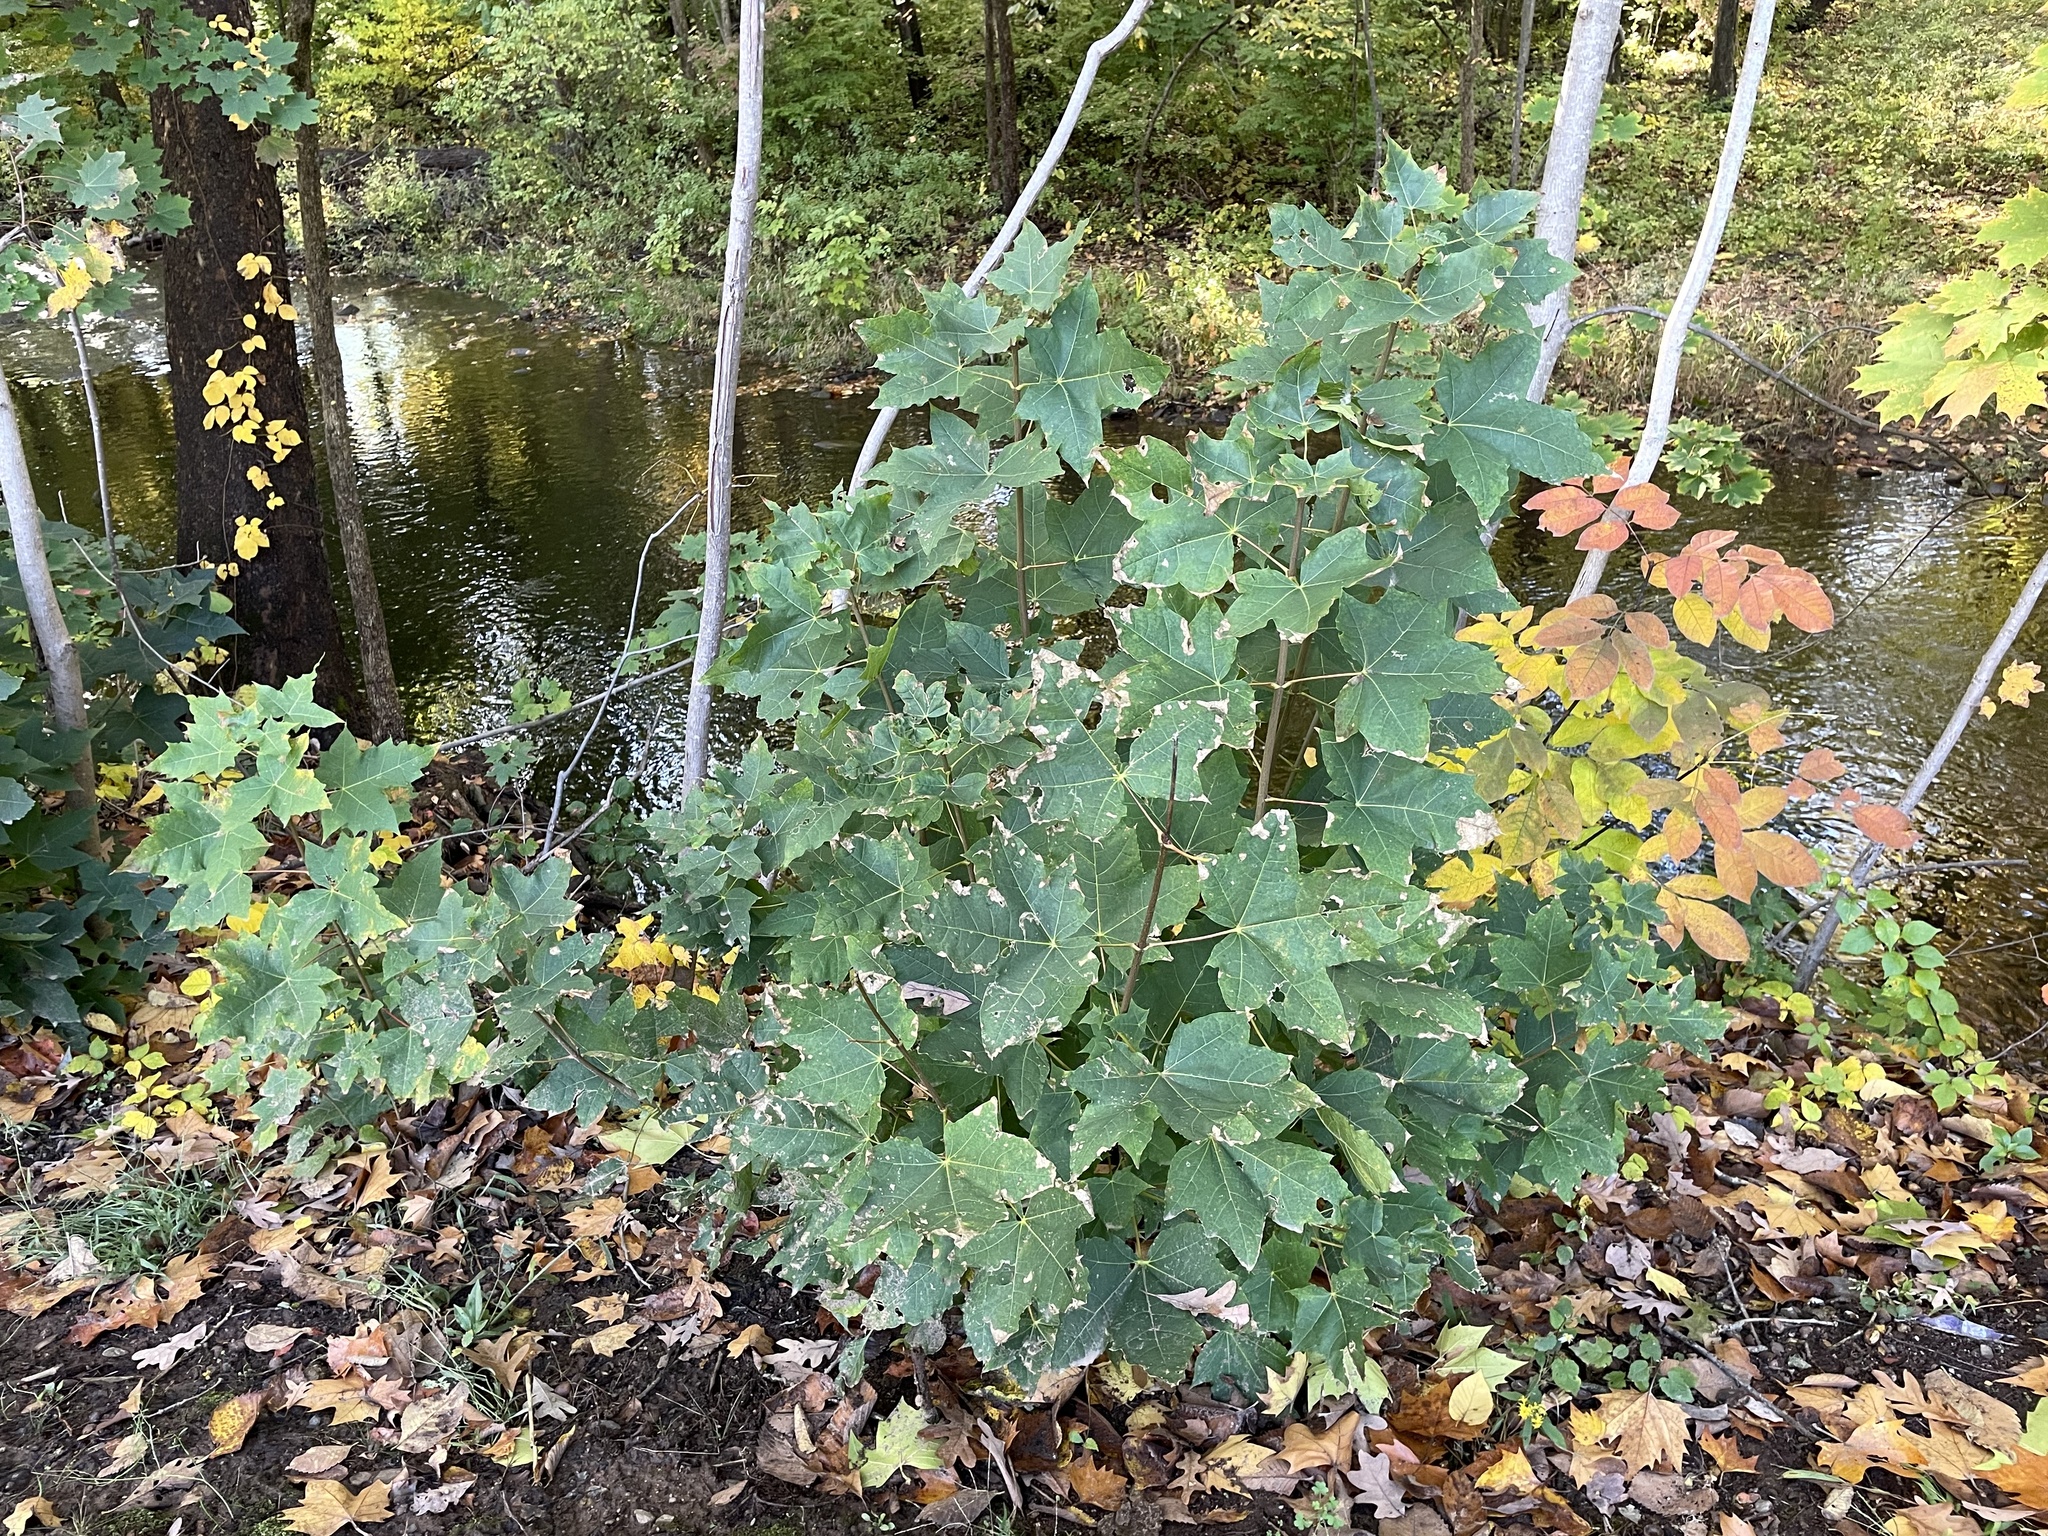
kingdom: Plantae
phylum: Tracheophyta
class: Magnoliopsida
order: Proteales
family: Platanaceae
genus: Platanus
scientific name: Platanus occidentalis
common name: American sycamore
